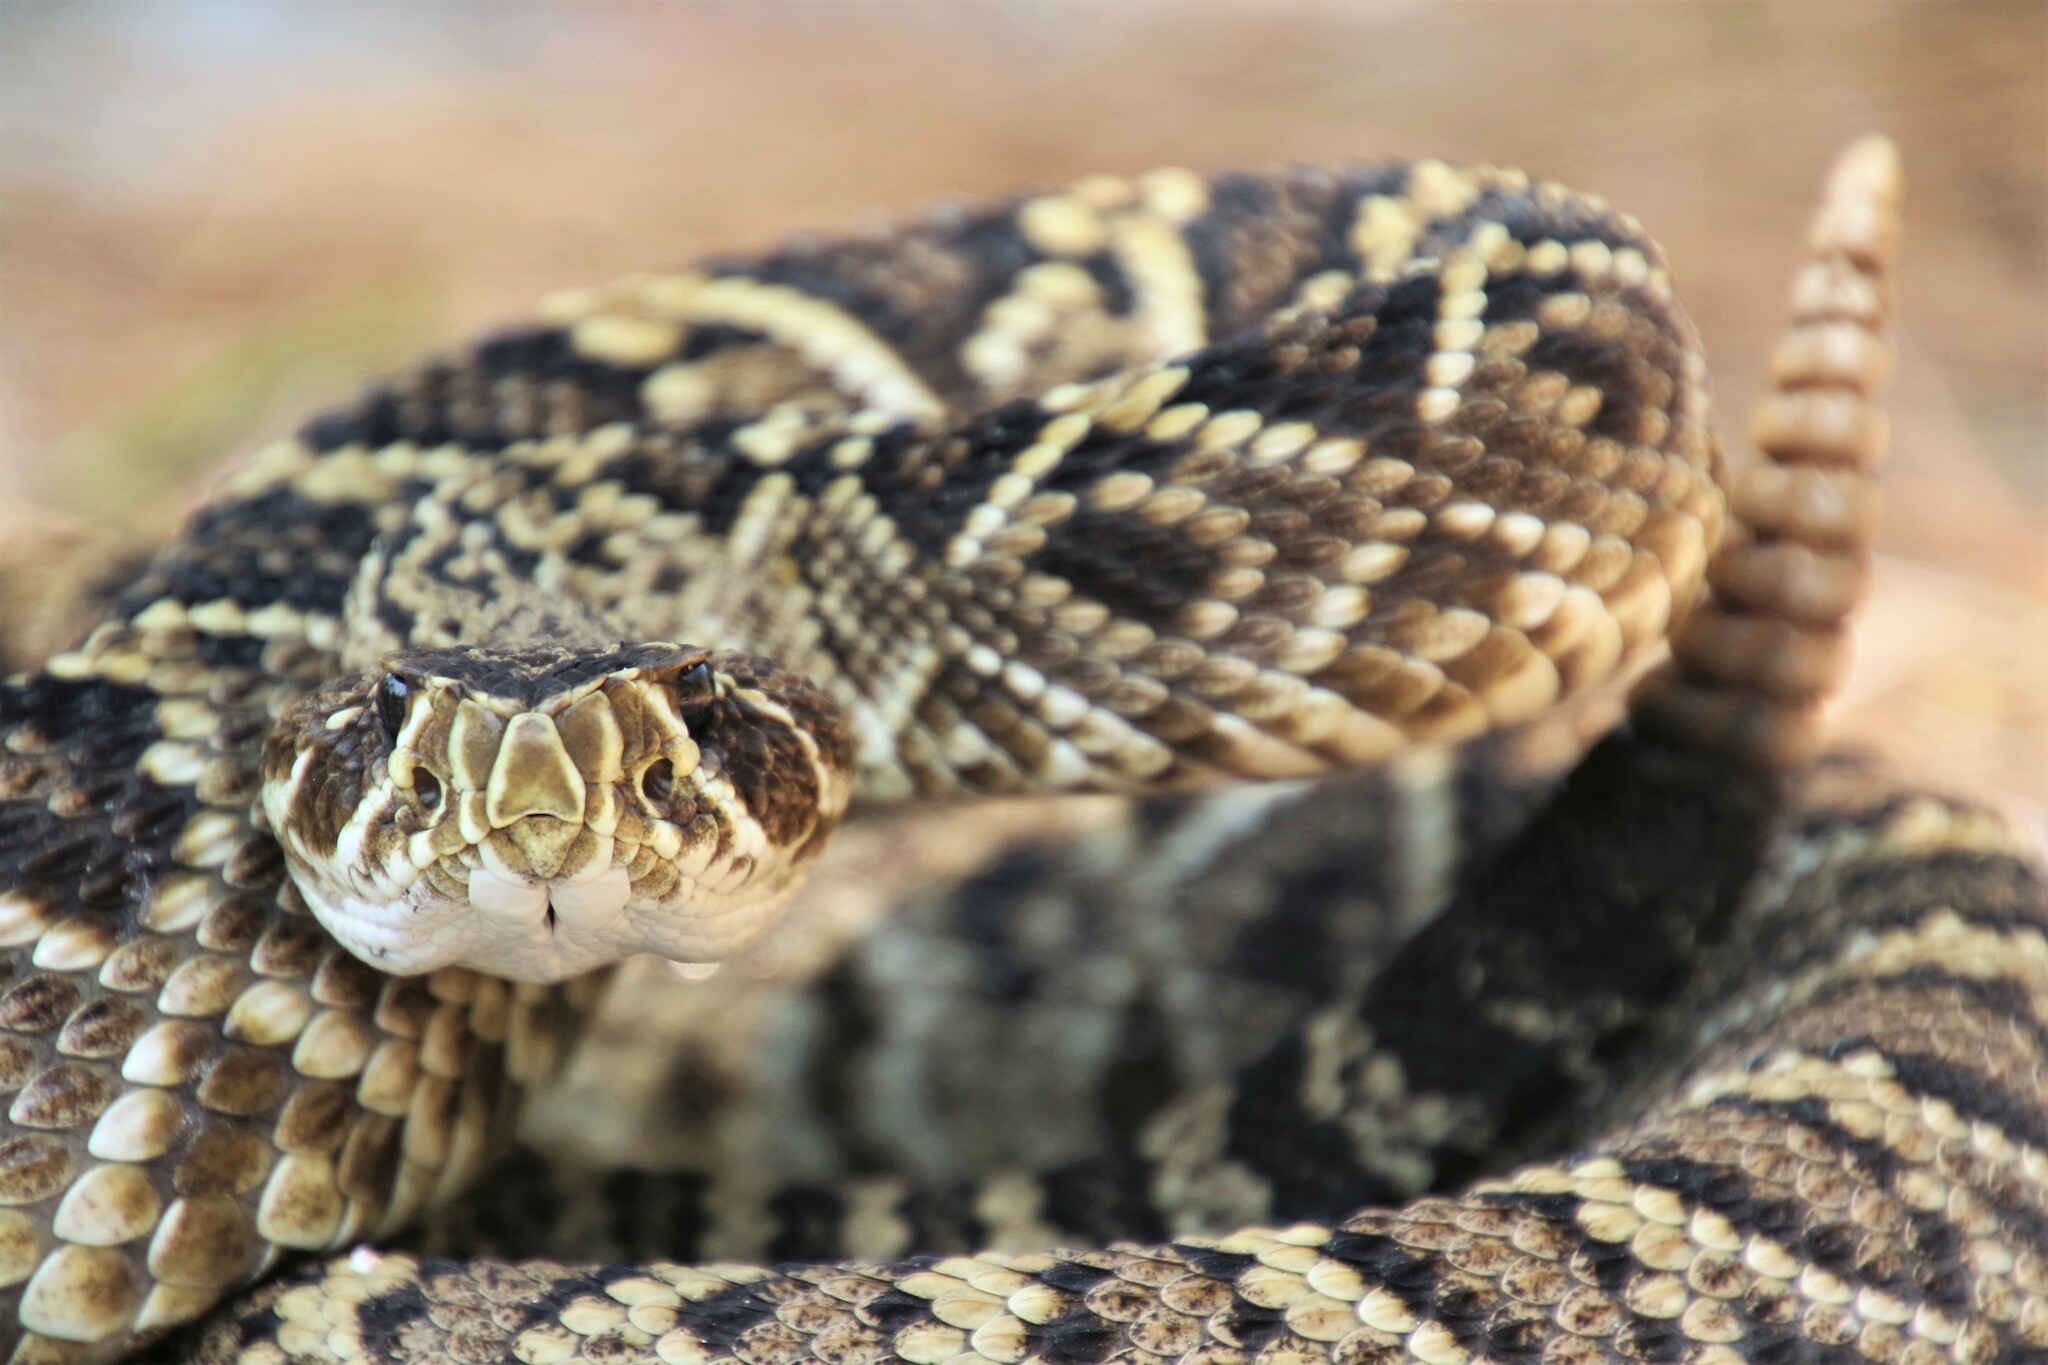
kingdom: Animalia
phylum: Chordata
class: Squamata
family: Viperidae
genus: Crotalus
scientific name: Crotalus adamanteus
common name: Eastern diamondback rattlesnake
